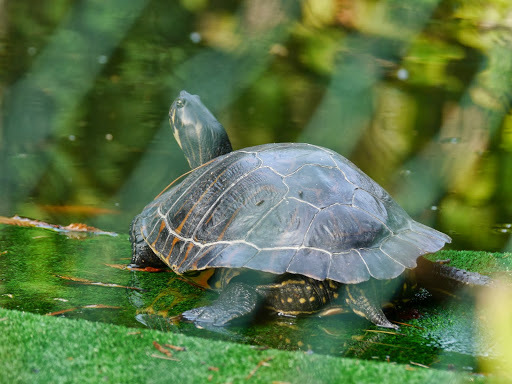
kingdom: Animalia
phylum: Chordata
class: Testudines
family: Emydidae
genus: Trachemys
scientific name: Trachemys scripta
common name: Slider
